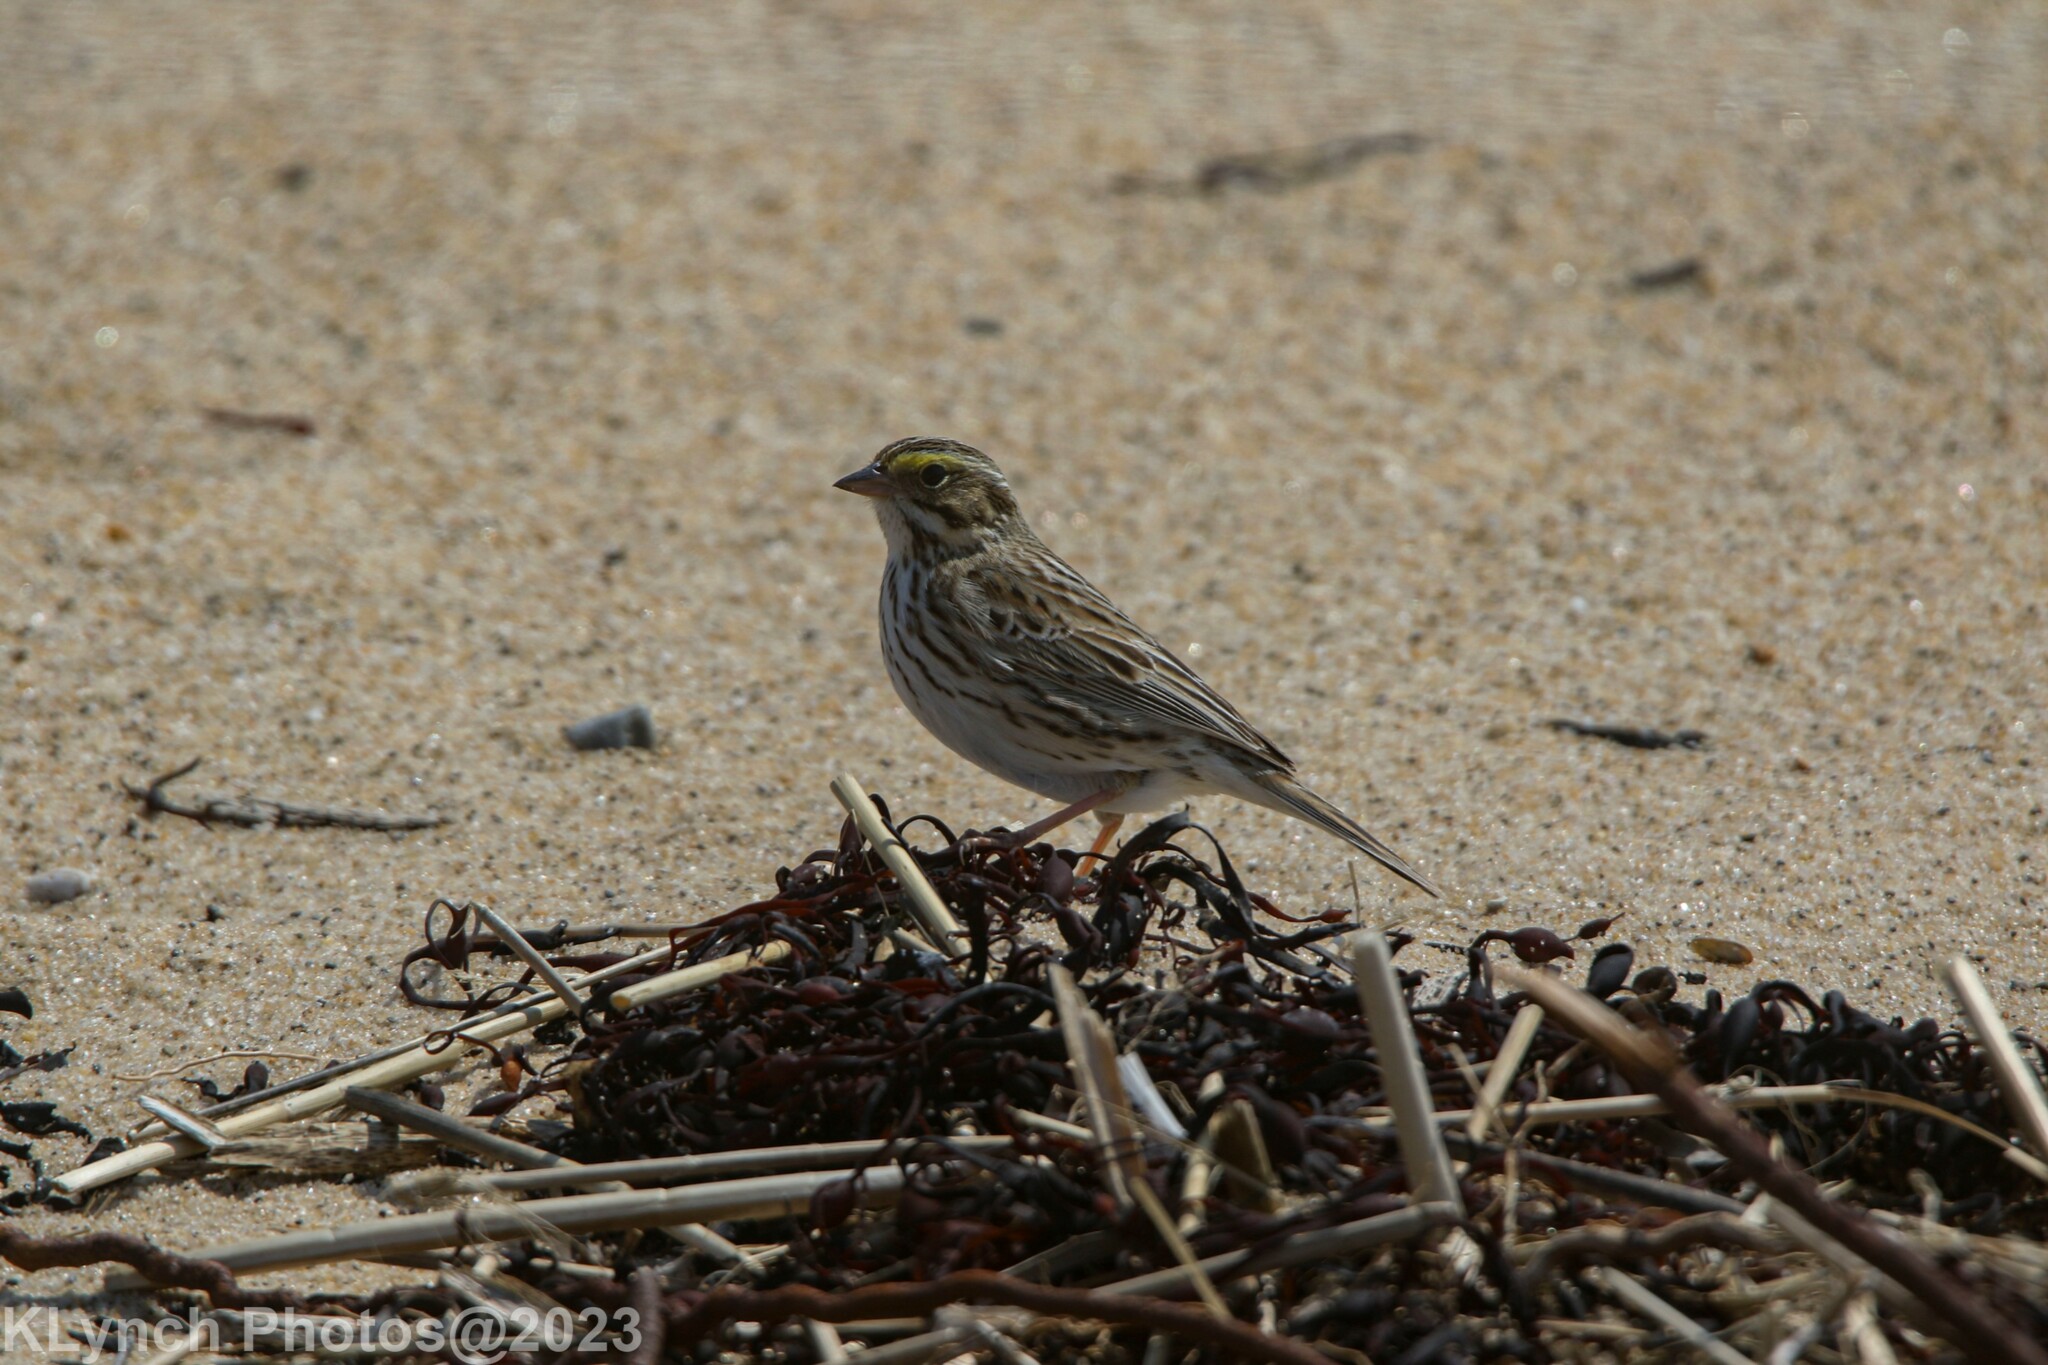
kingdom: Animalia
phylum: Chordata
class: Aves
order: Passeriformes
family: Passerellidae
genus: Passerculus
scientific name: Passerculus sandwichensis
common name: Savannah sparrow
